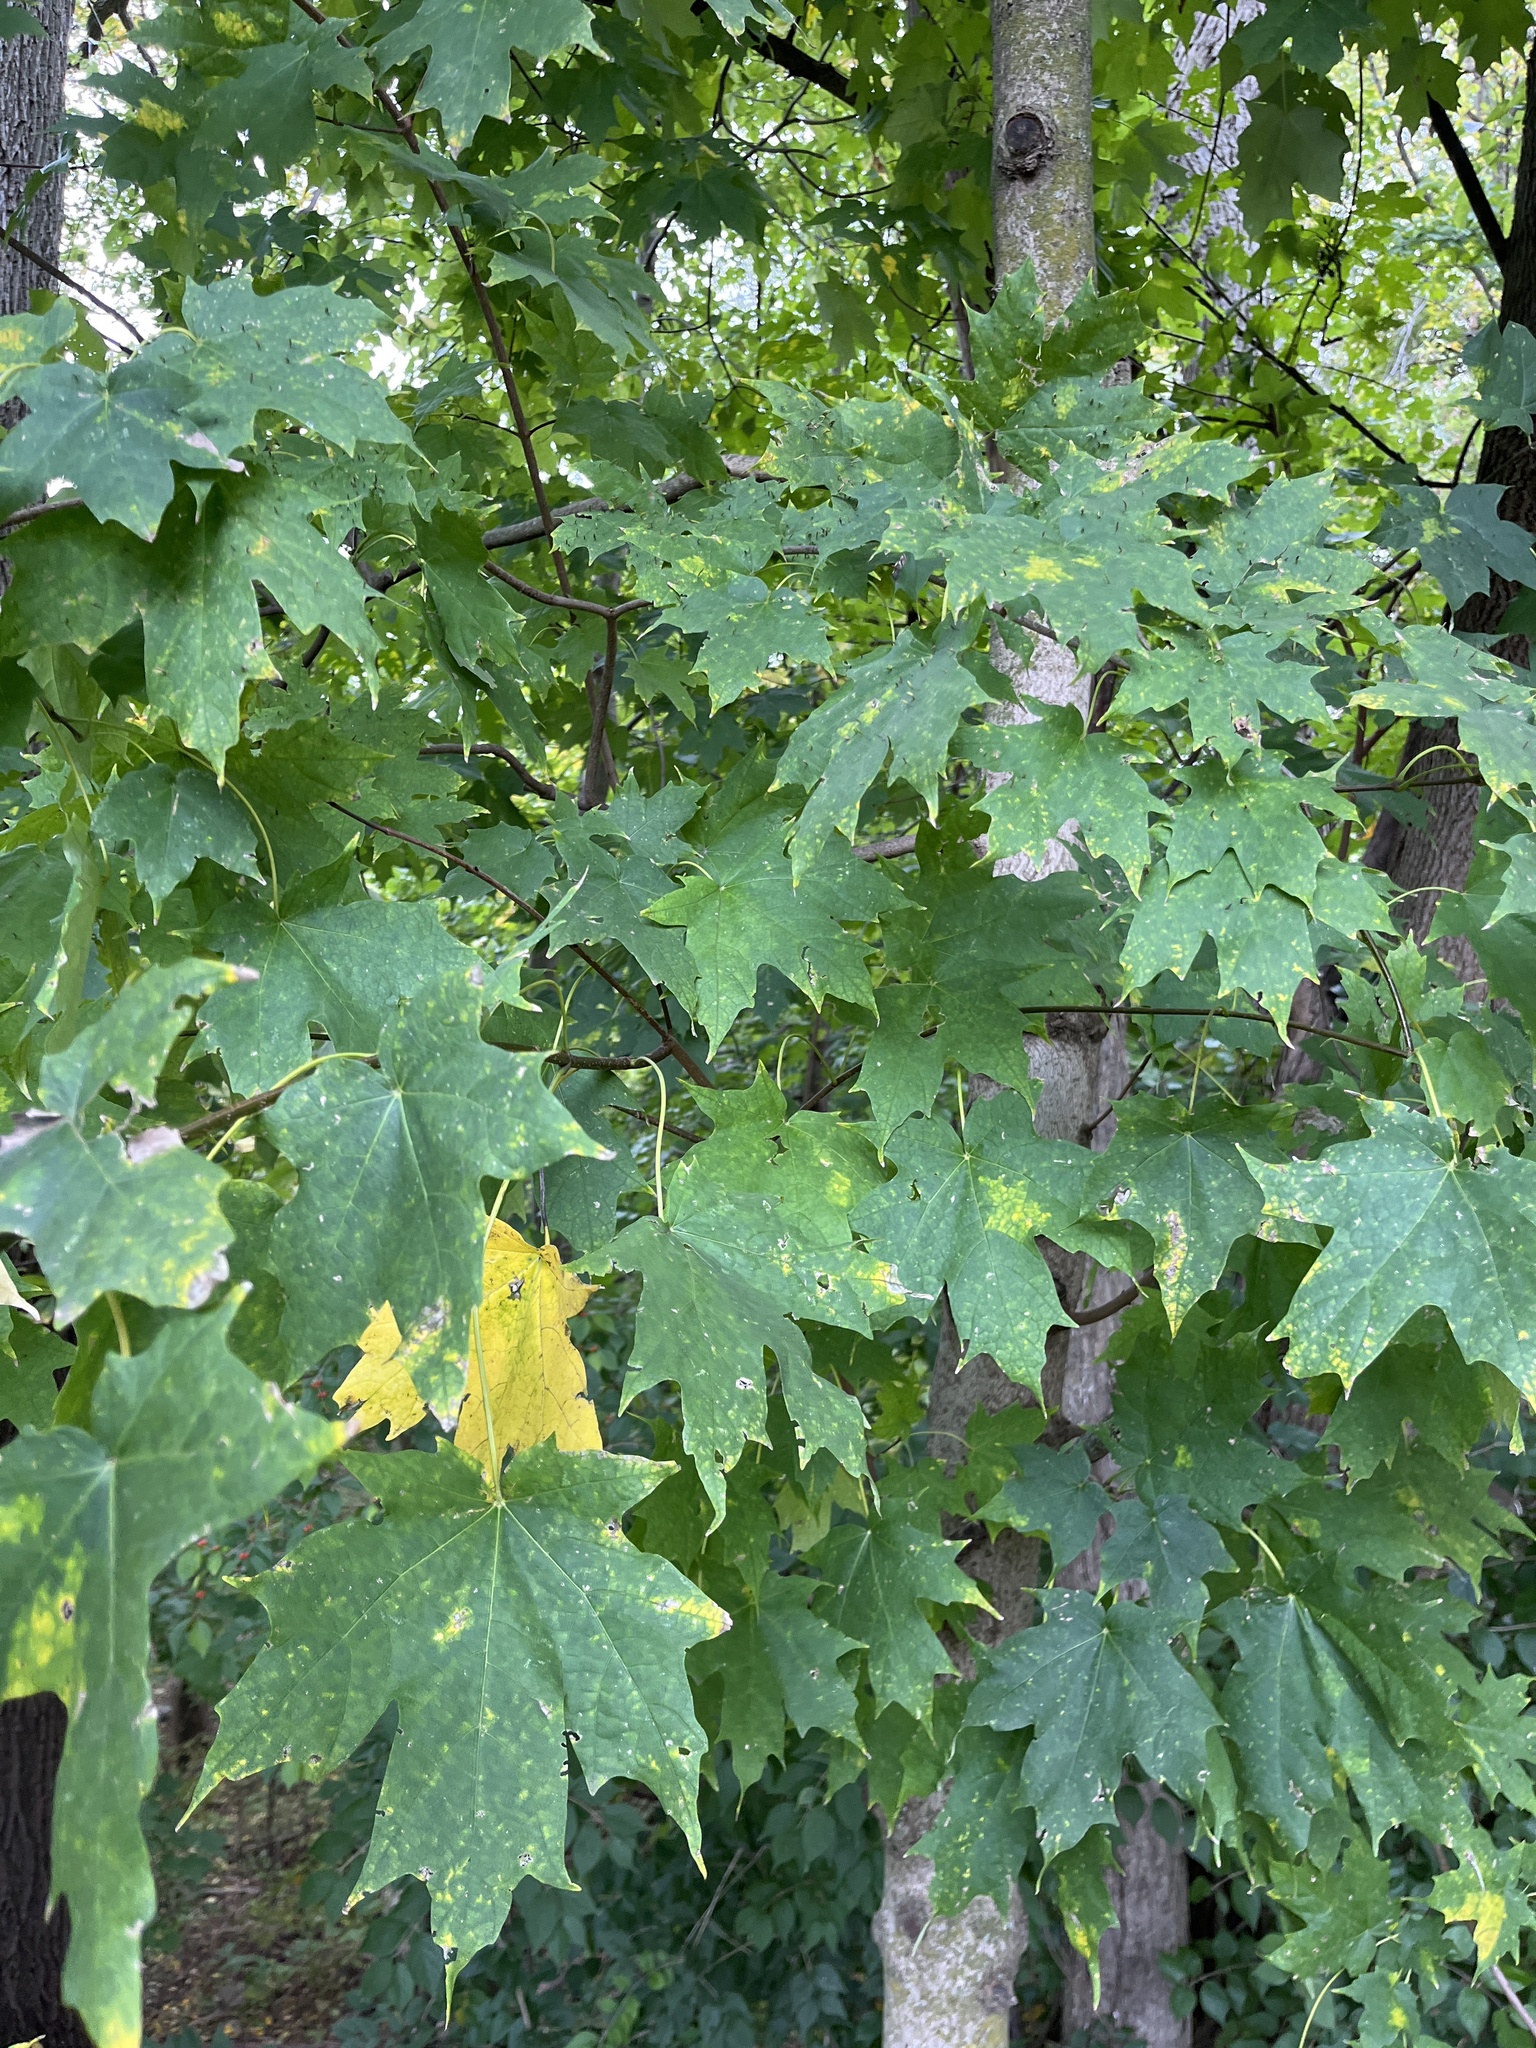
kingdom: Plantae
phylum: Tracheophyta
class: Magnoliopsida
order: Sapindales
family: Sapindaceae
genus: Acer
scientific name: Acer saccharum
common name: Sugar maple
